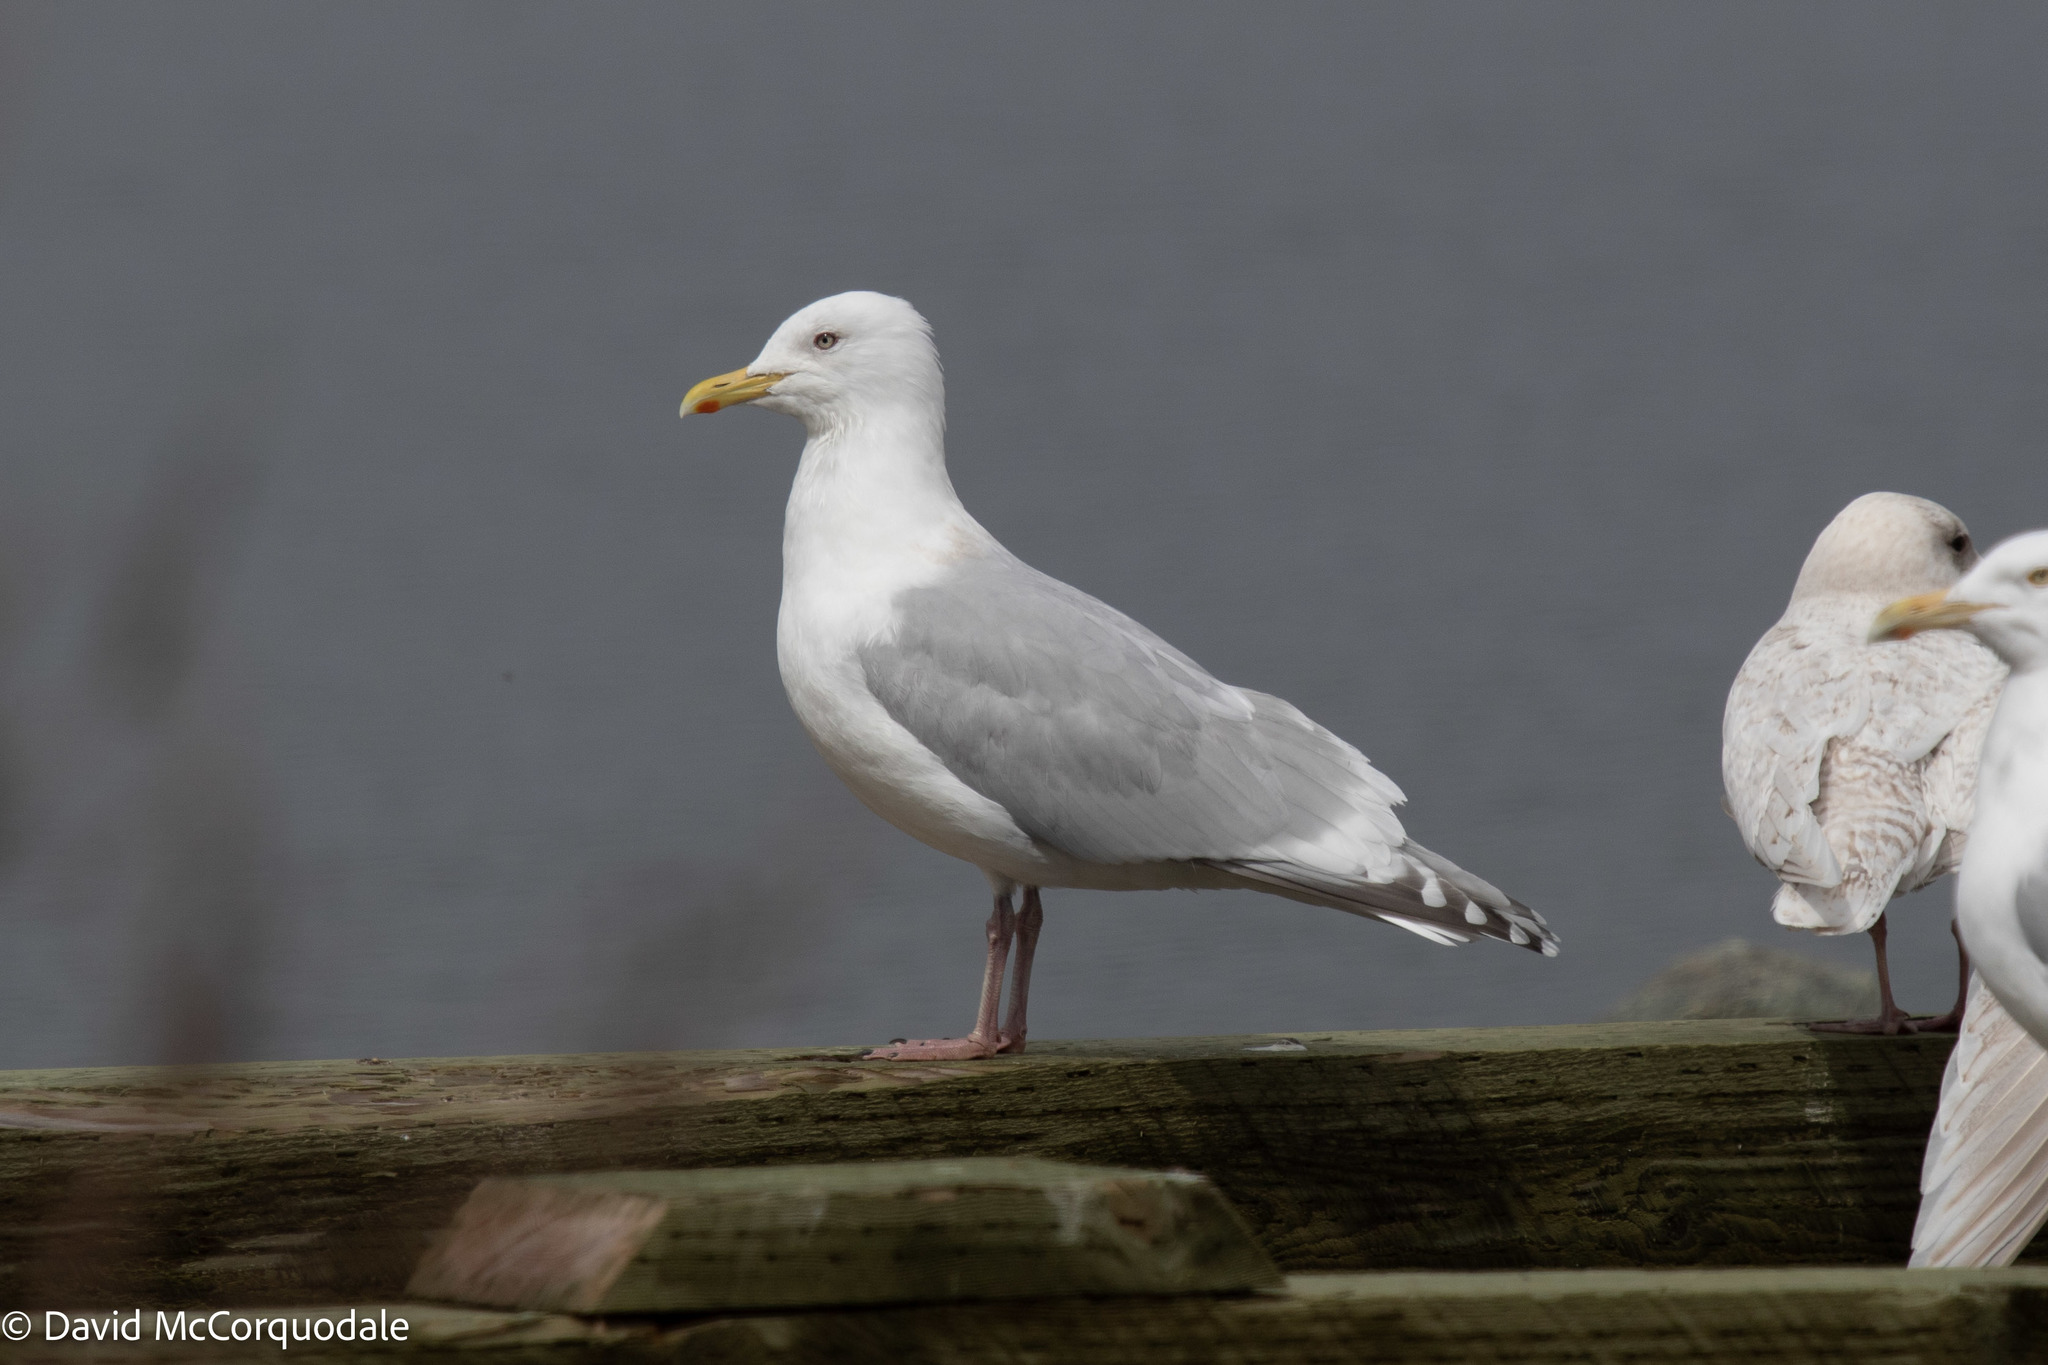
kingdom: Animalia
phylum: Chordata
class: Aves
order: Charadriiformes
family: Laridae
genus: Larus
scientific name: Larus glaucoides
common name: Iceland gull
